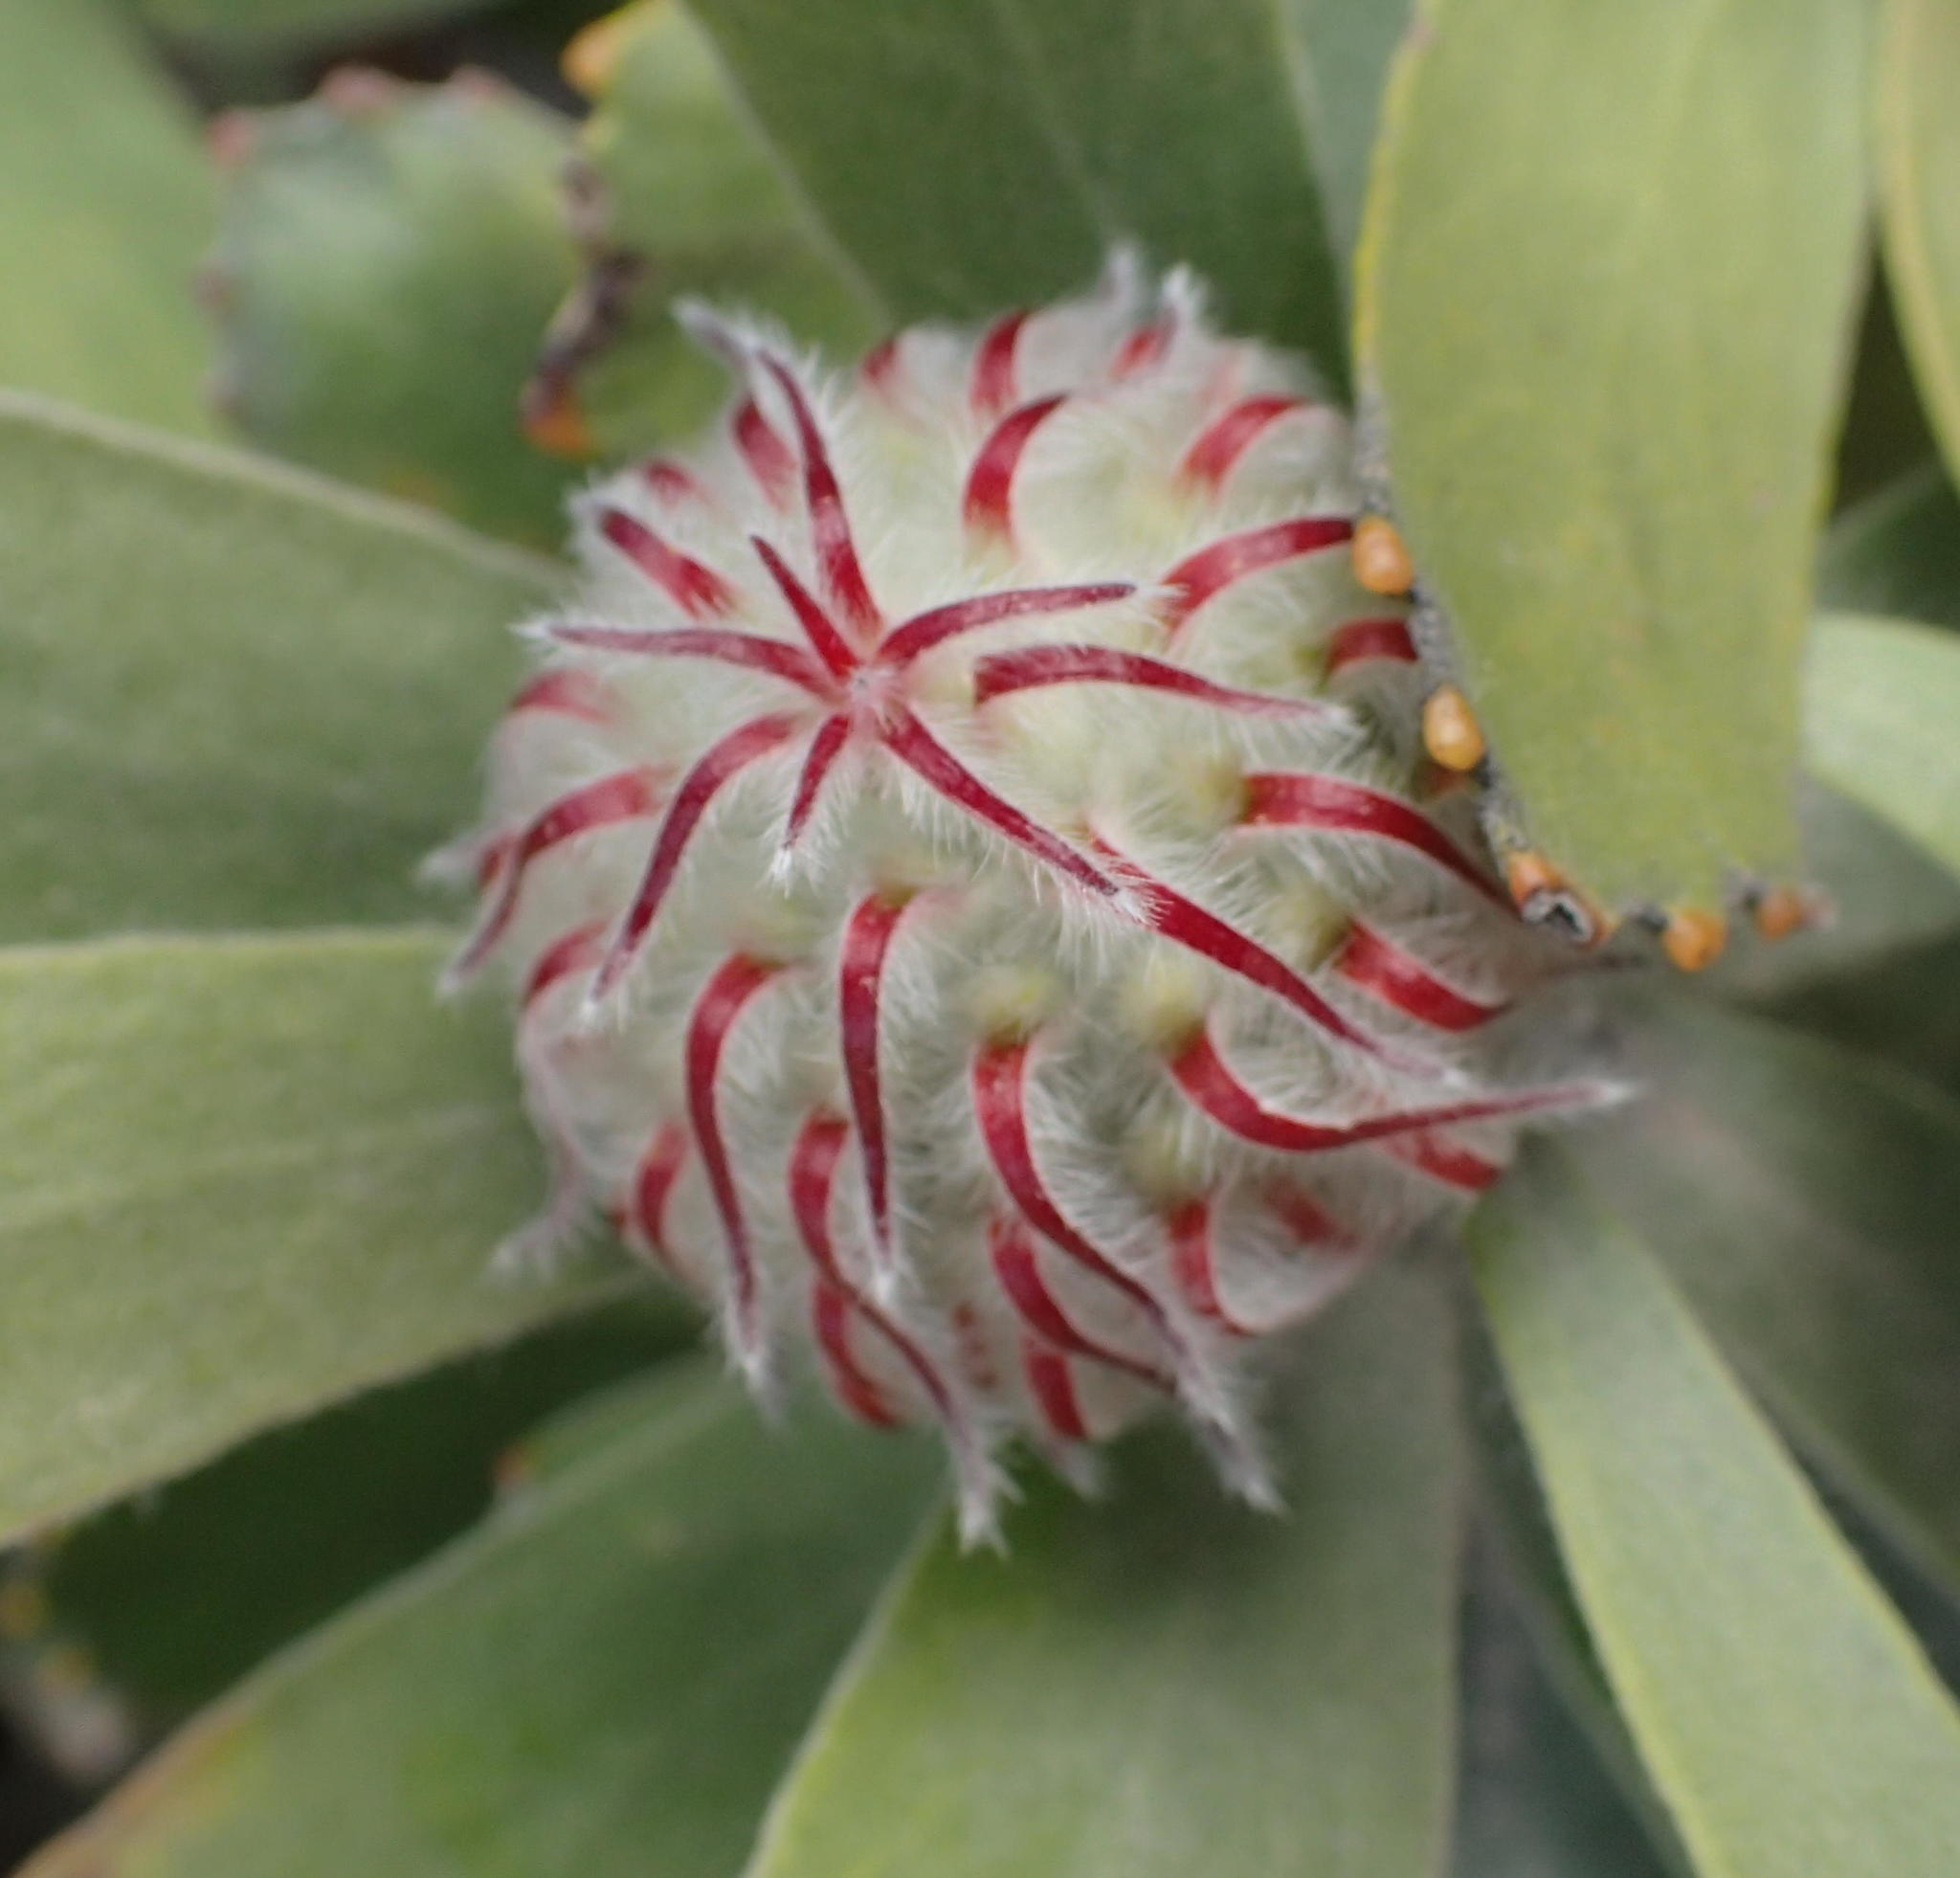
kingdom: Plantae
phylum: Tracheophyta
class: Magnoliopsida
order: Proteales
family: Proteaceae
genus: Leucospermum
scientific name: Leucospermum pluridens
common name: Robinson pincushion
